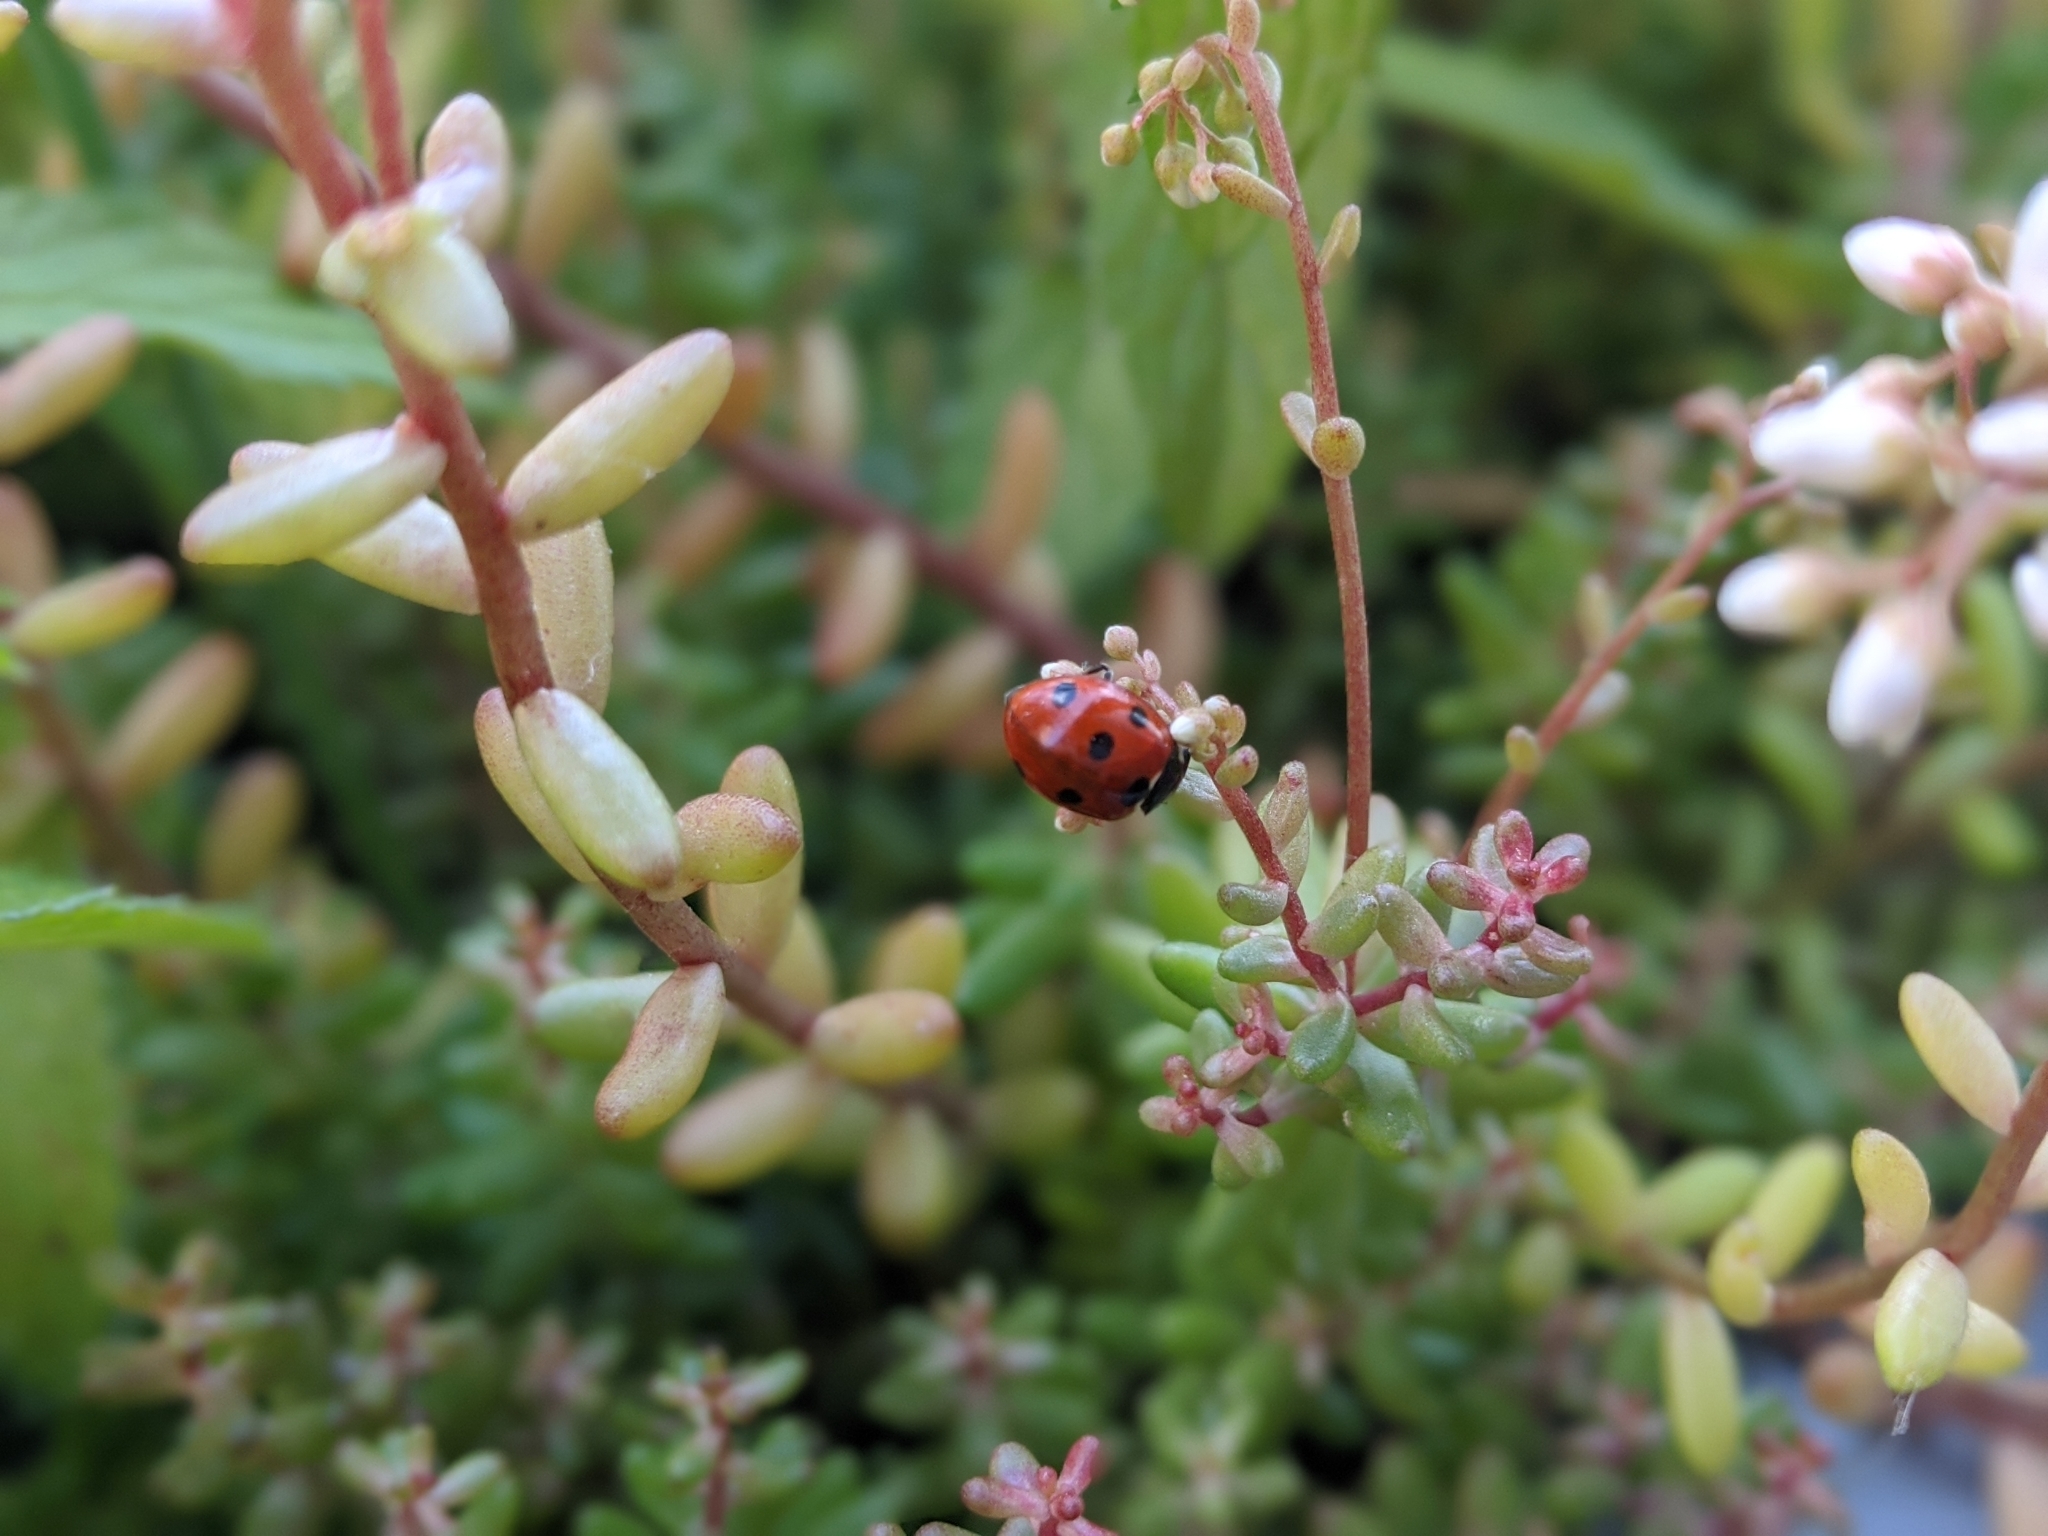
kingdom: Animalia
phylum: Arthropoda
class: Insecta
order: Coleoptera
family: Coccinellidae
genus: Coccinella
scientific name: Coccinella septempunctata
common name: Sevenspotted lady beetle
